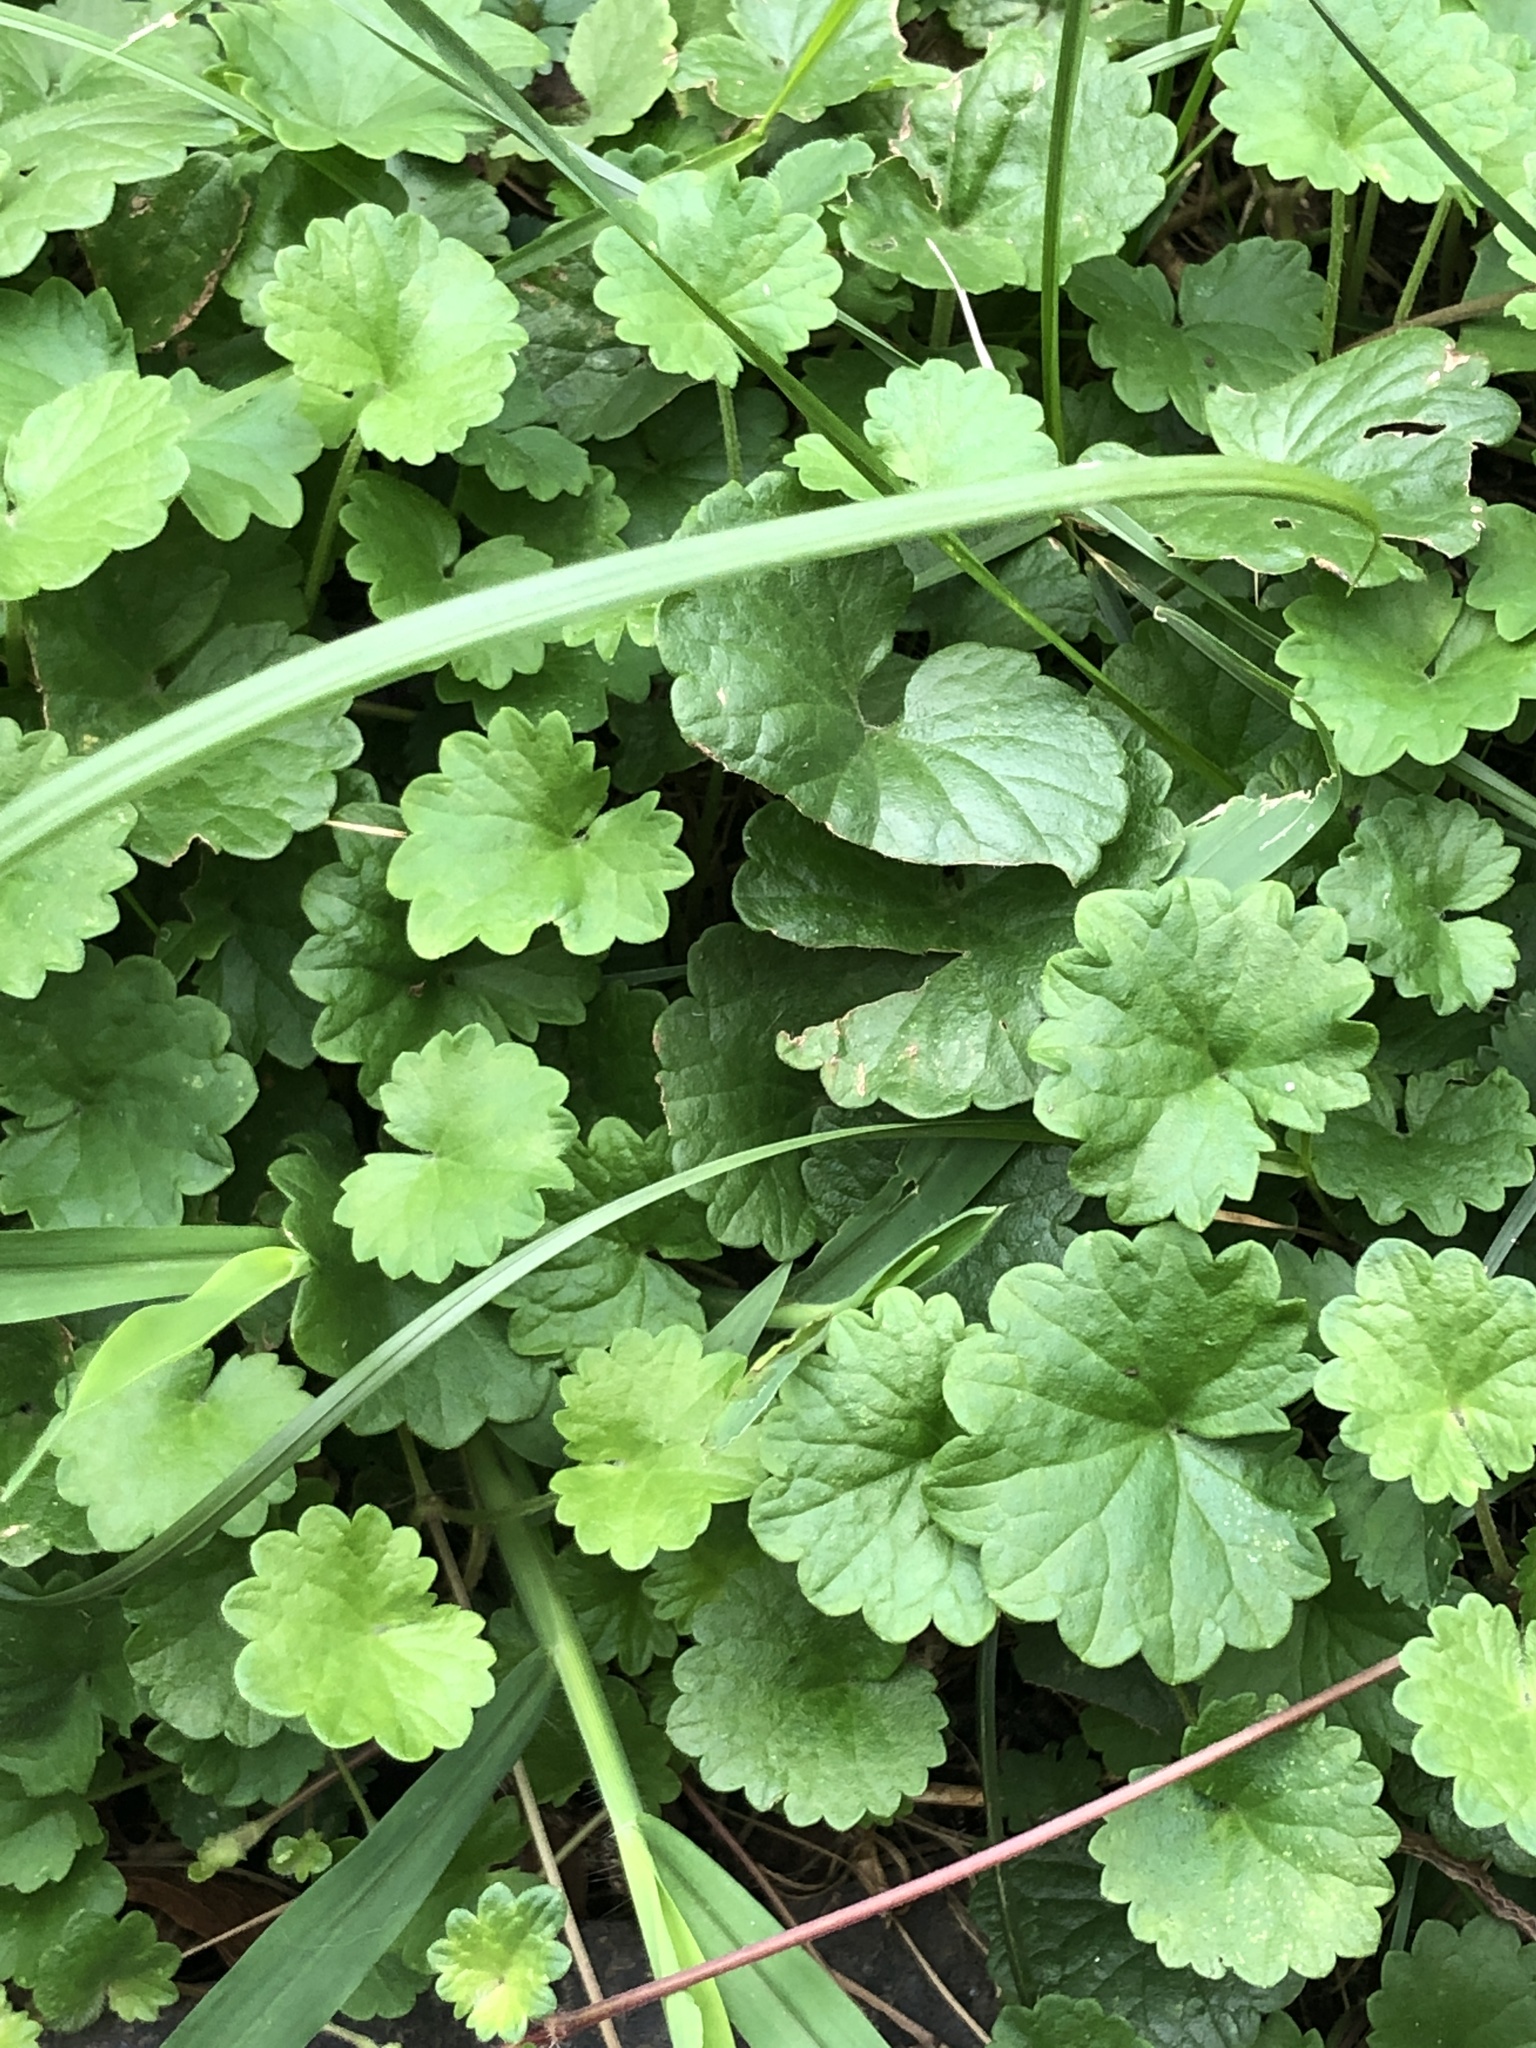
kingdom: Plantae
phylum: Tracheophyta
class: Magnoliopsida
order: Lamiales
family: Lamiaceae
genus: Glechoma
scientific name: Glechoma hederacea
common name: Ground ivy
